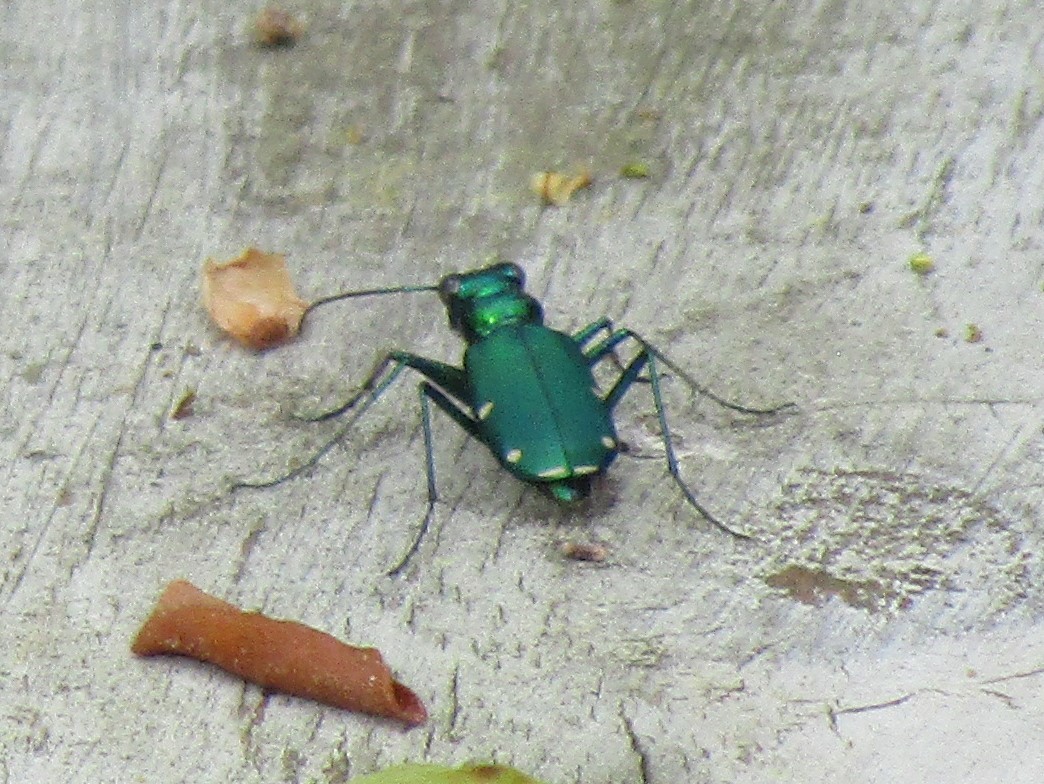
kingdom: Animalia
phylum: Arthropoda
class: Insecta
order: Coleoptera
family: Carabidae
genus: Cicindela
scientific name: Cicindela sexguttata
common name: Six-spotted tiger beetle
